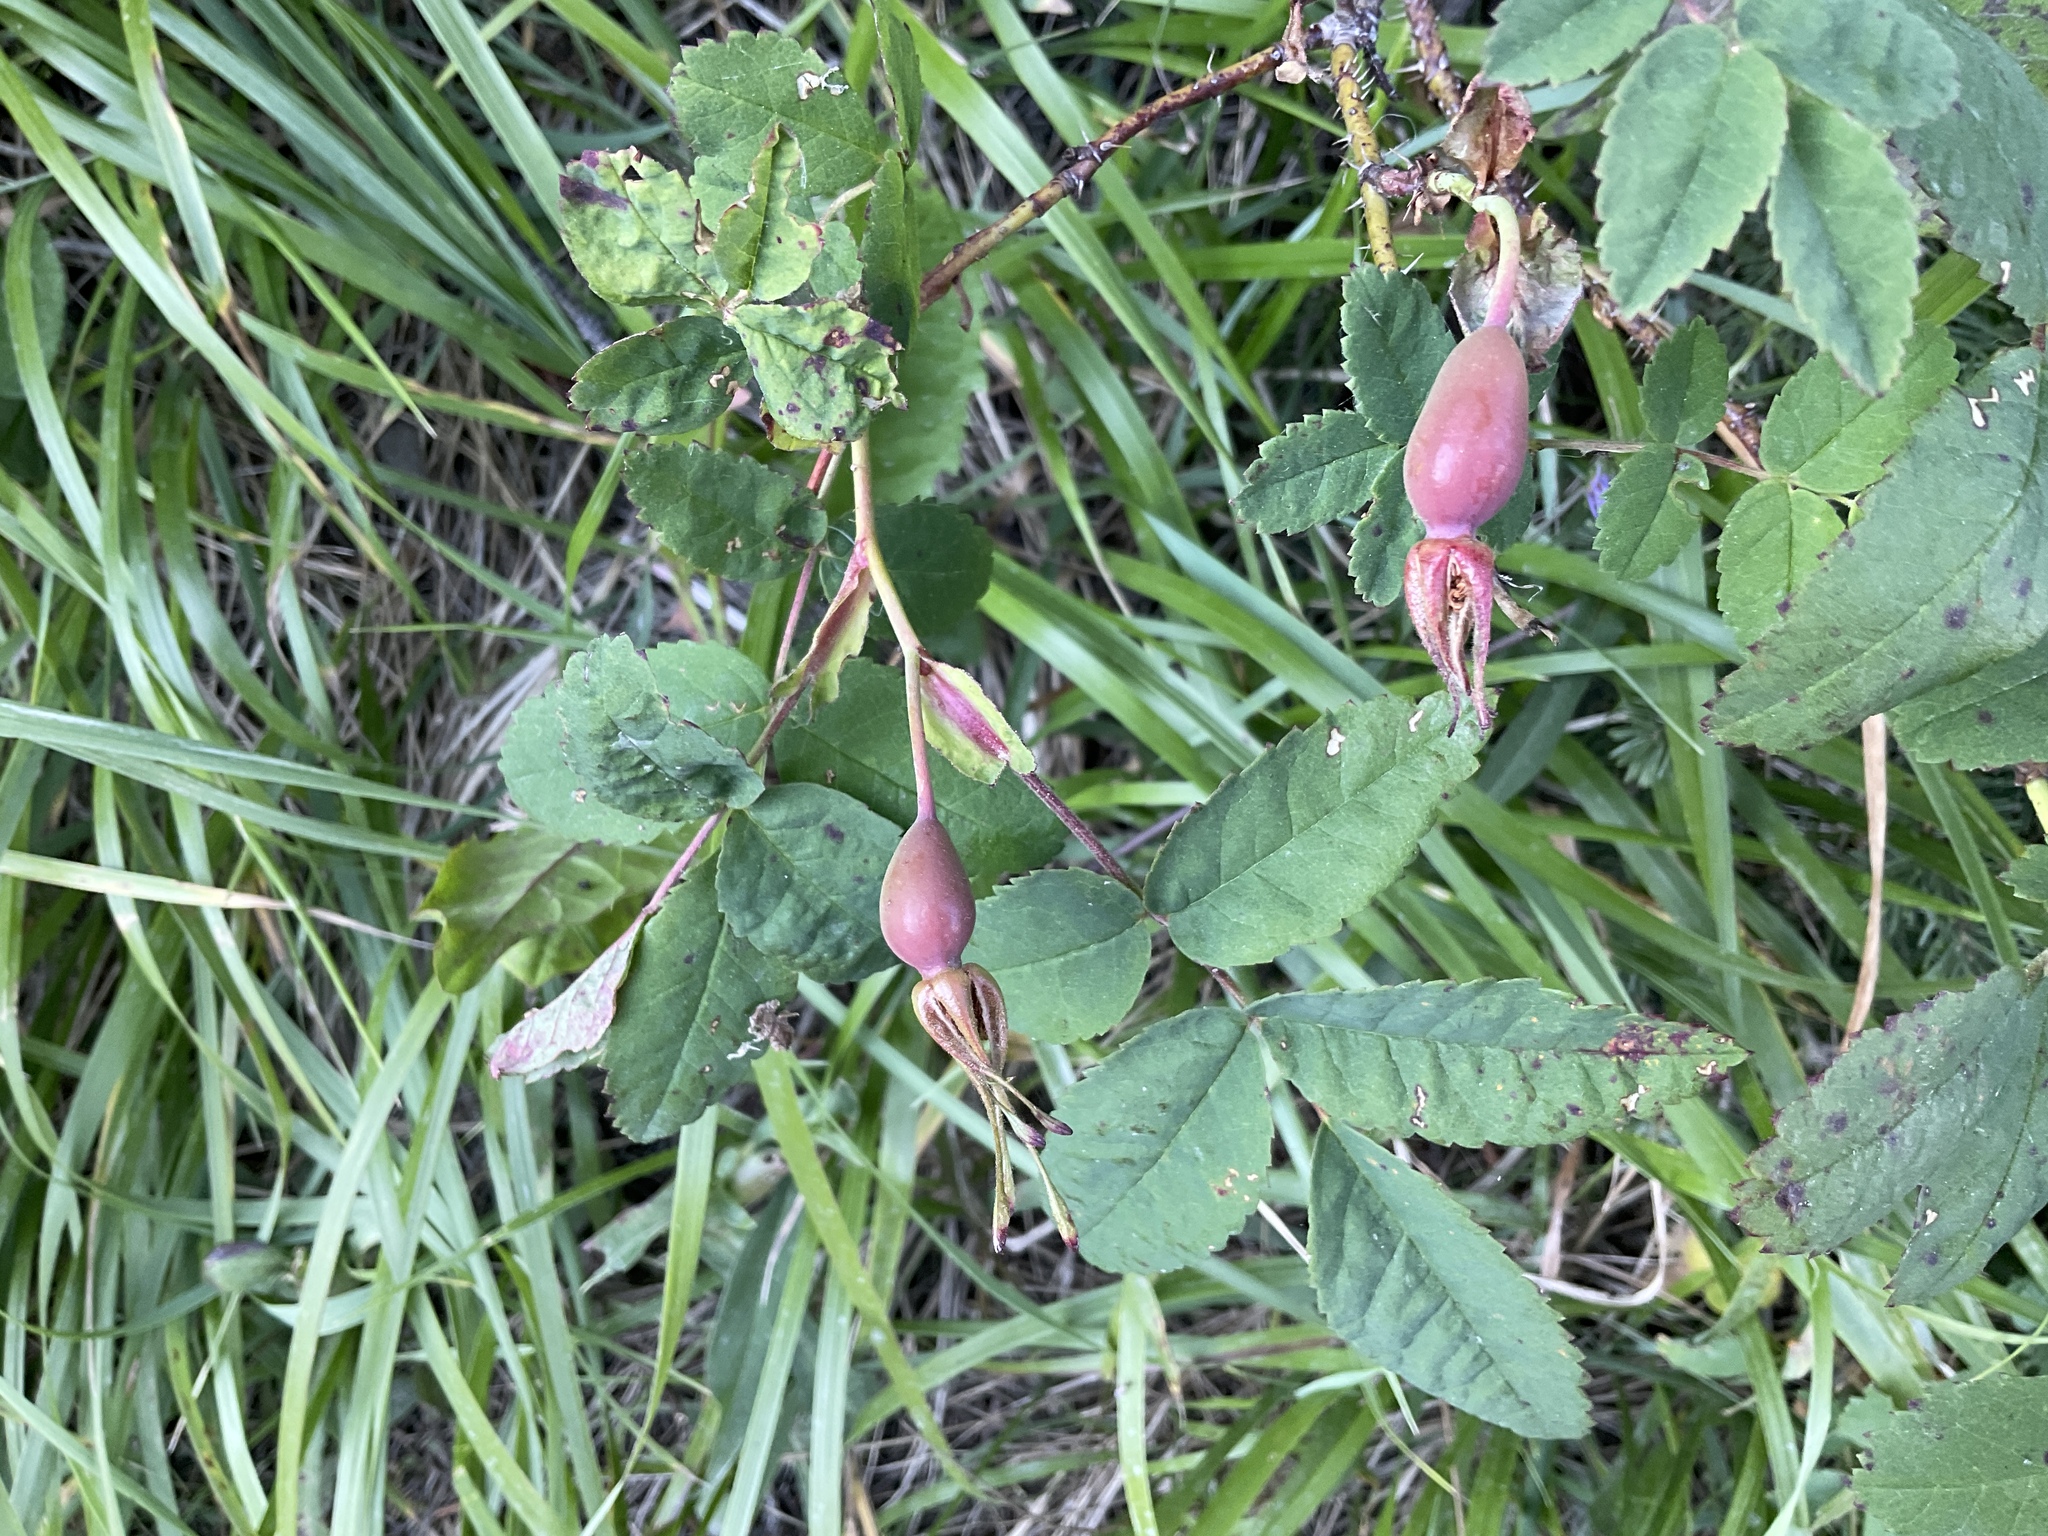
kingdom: Plantae
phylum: Tracheophyta
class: Magnoliopsida
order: Rosales
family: Rosaceae
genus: Rosa
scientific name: Rosa acicularis
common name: Prickly rose
